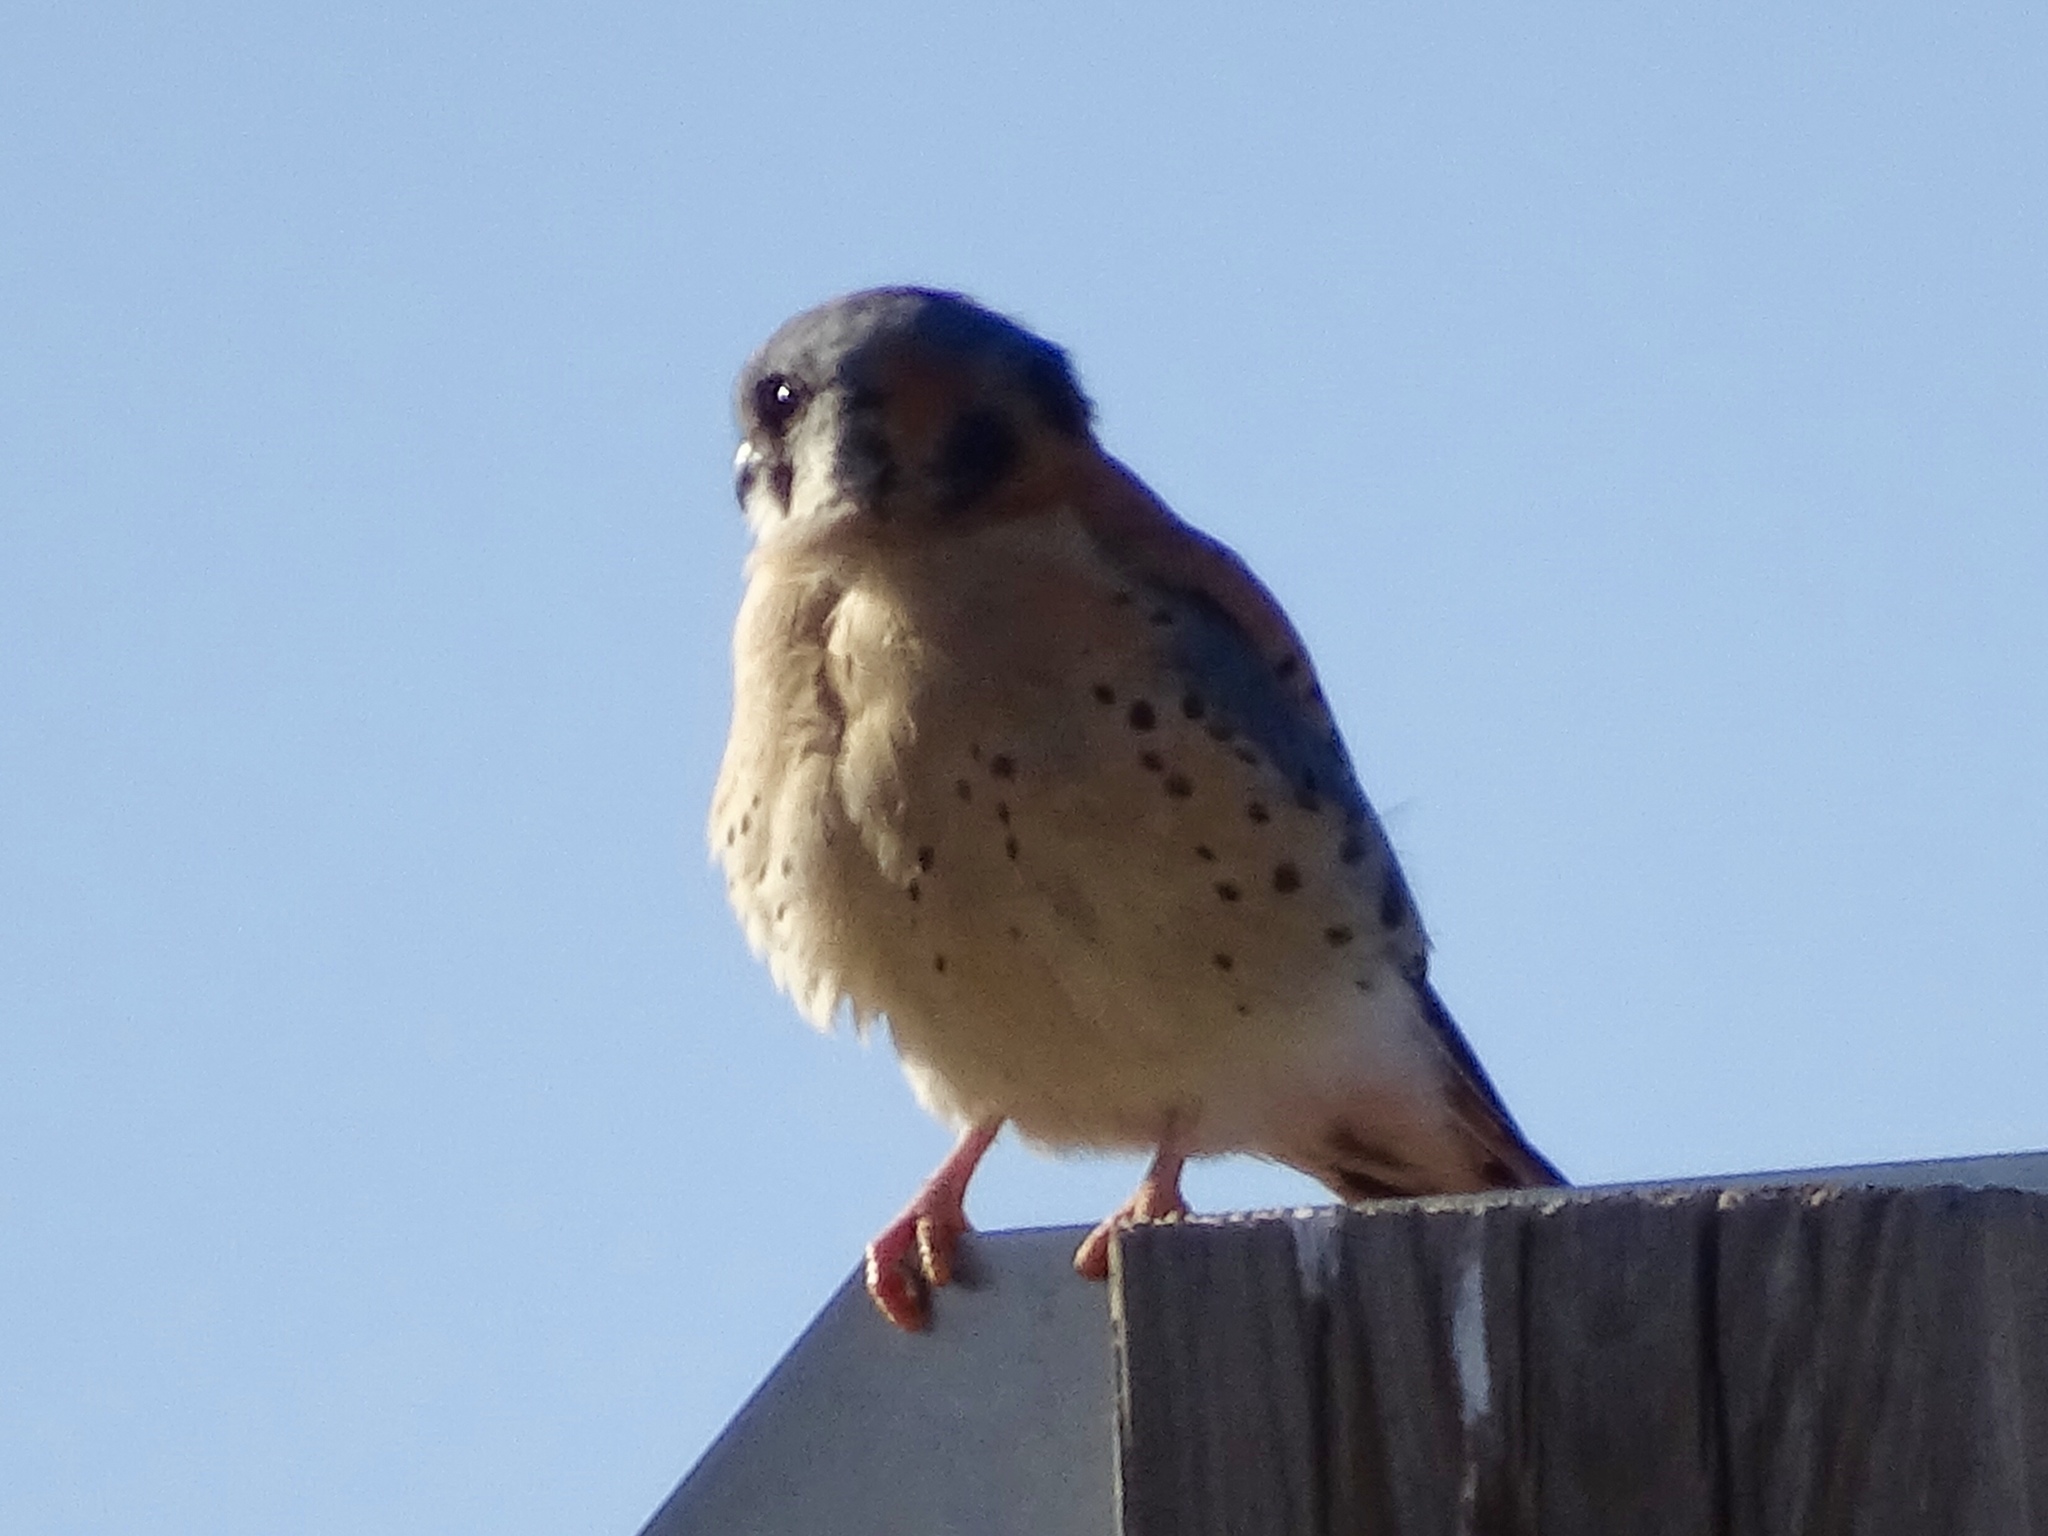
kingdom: Animalia
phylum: Chordata
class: Aves
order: Falconiformes
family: Falconidae
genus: Falco
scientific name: Falco sparverius
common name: American kestrel
